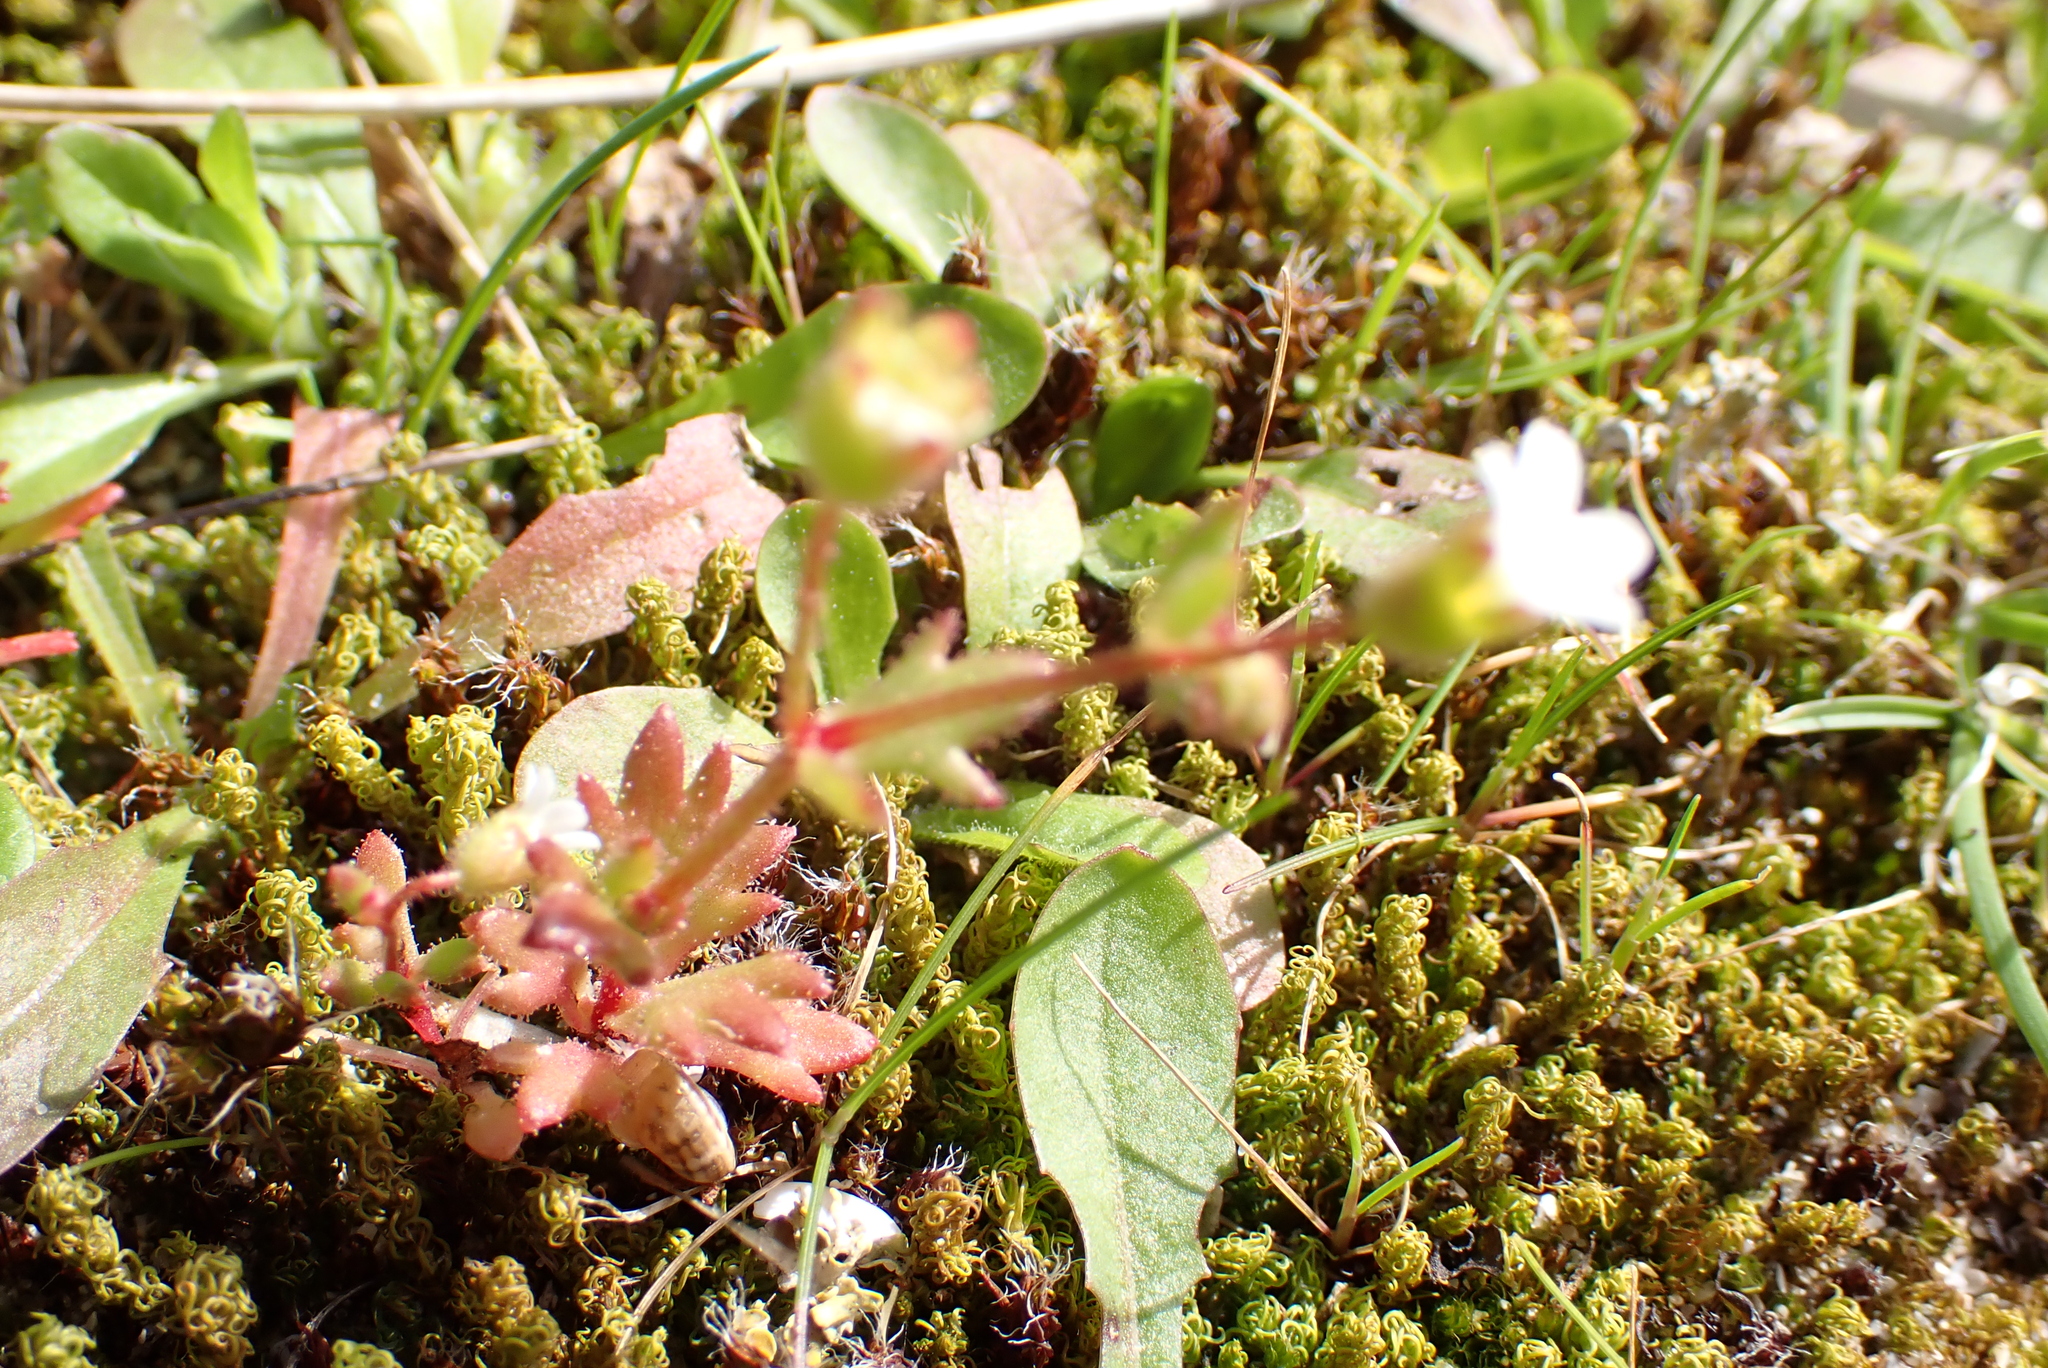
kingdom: Plantae
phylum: Tracheophyta
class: Magnoliopsida
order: Saxifragales
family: Saxifragaceae
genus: Saxifraga
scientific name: Saxifraga tridactylites
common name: Rue-leaved saxifrage
